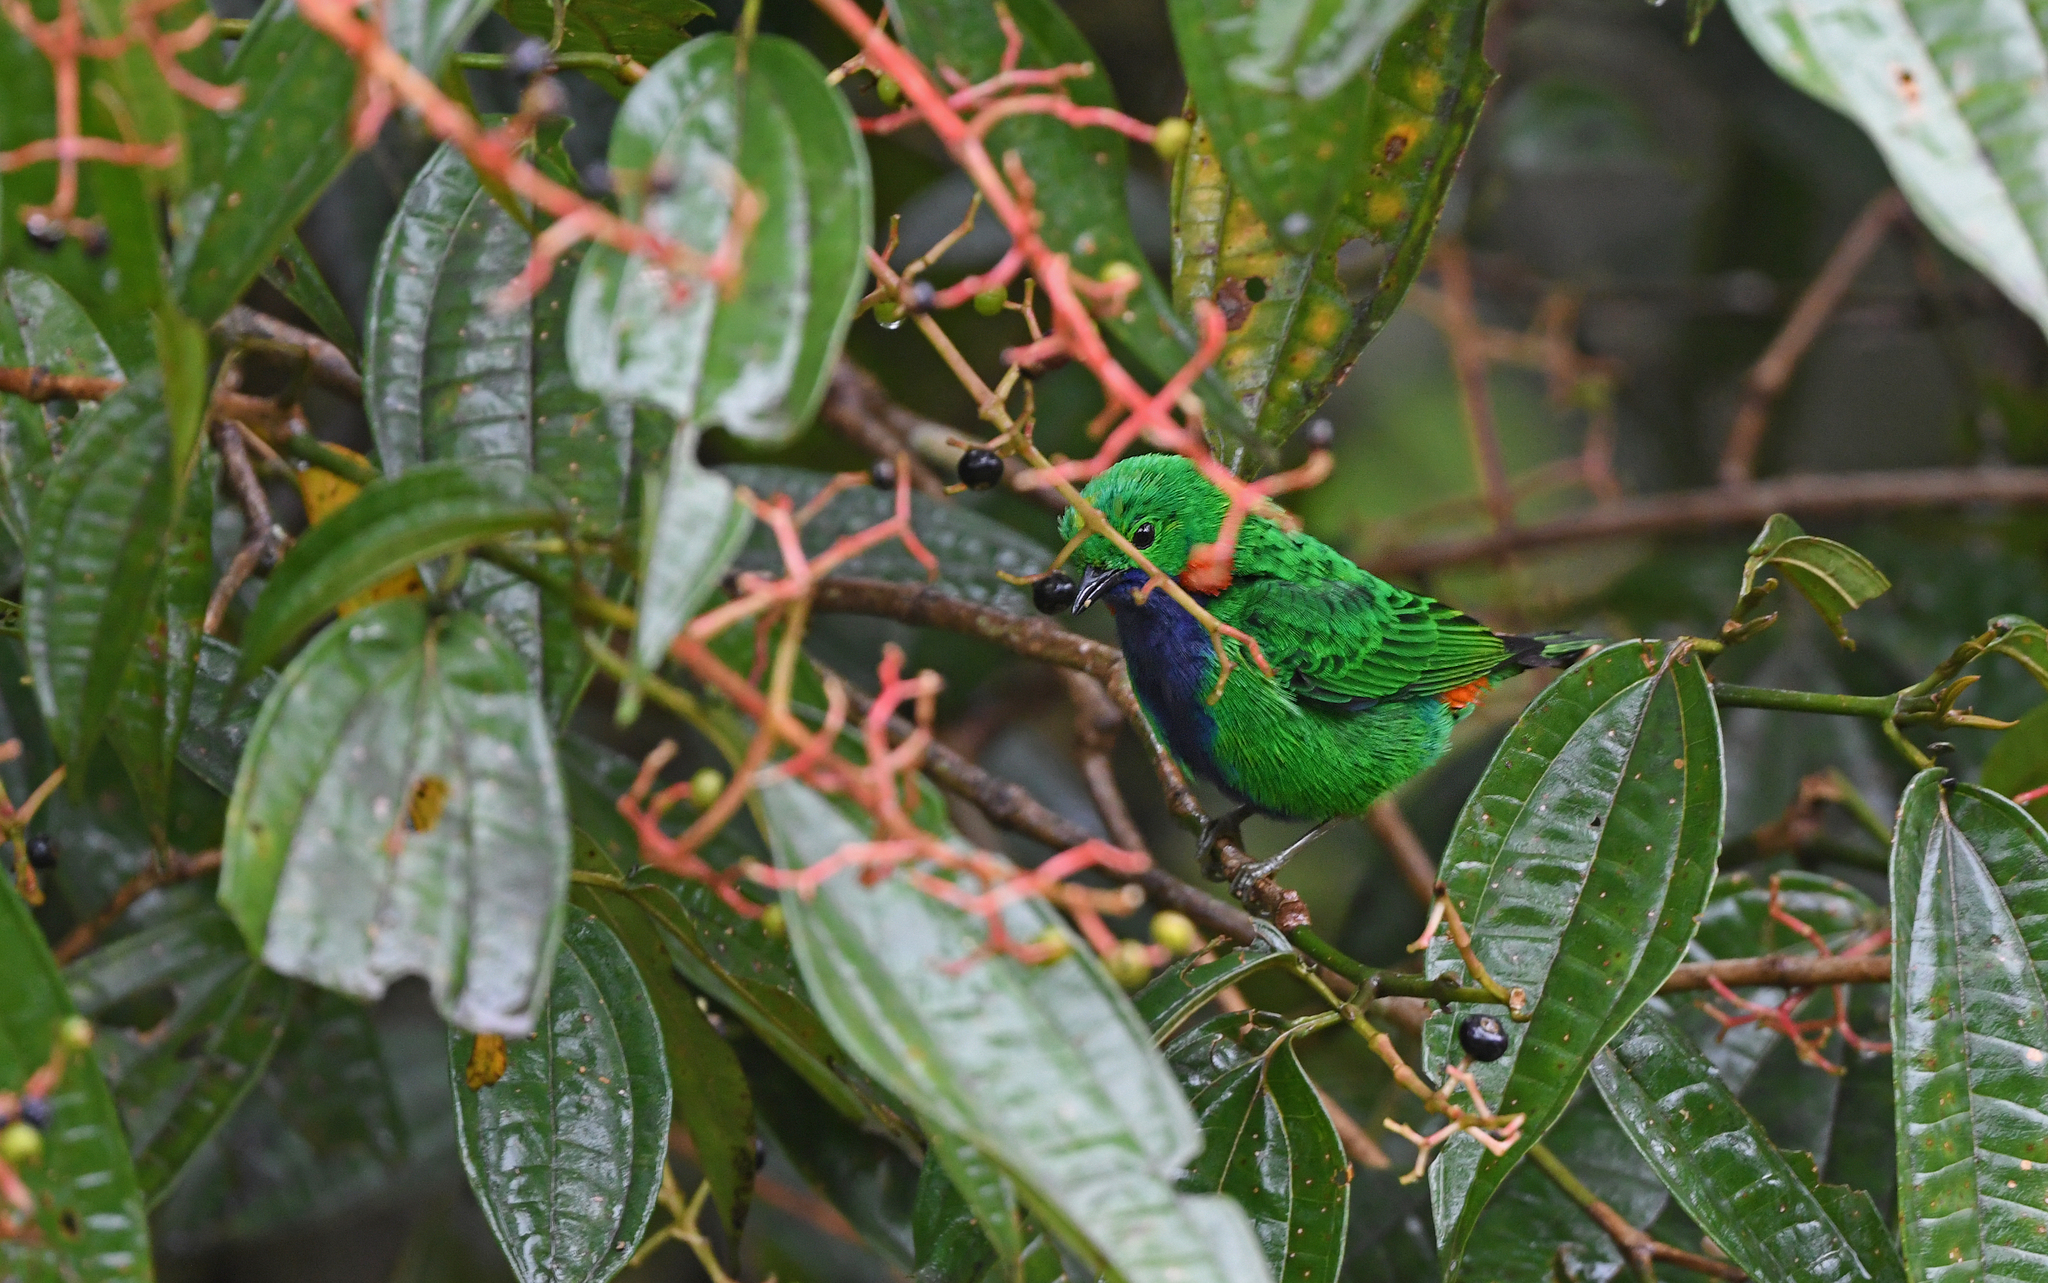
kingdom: Animalia
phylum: Chordata
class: Aves
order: Passeriformes
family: Thraupidae
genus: Chlorochrysa
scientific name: Chlorochrysa calliparaea
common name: Orange-eared tanager
